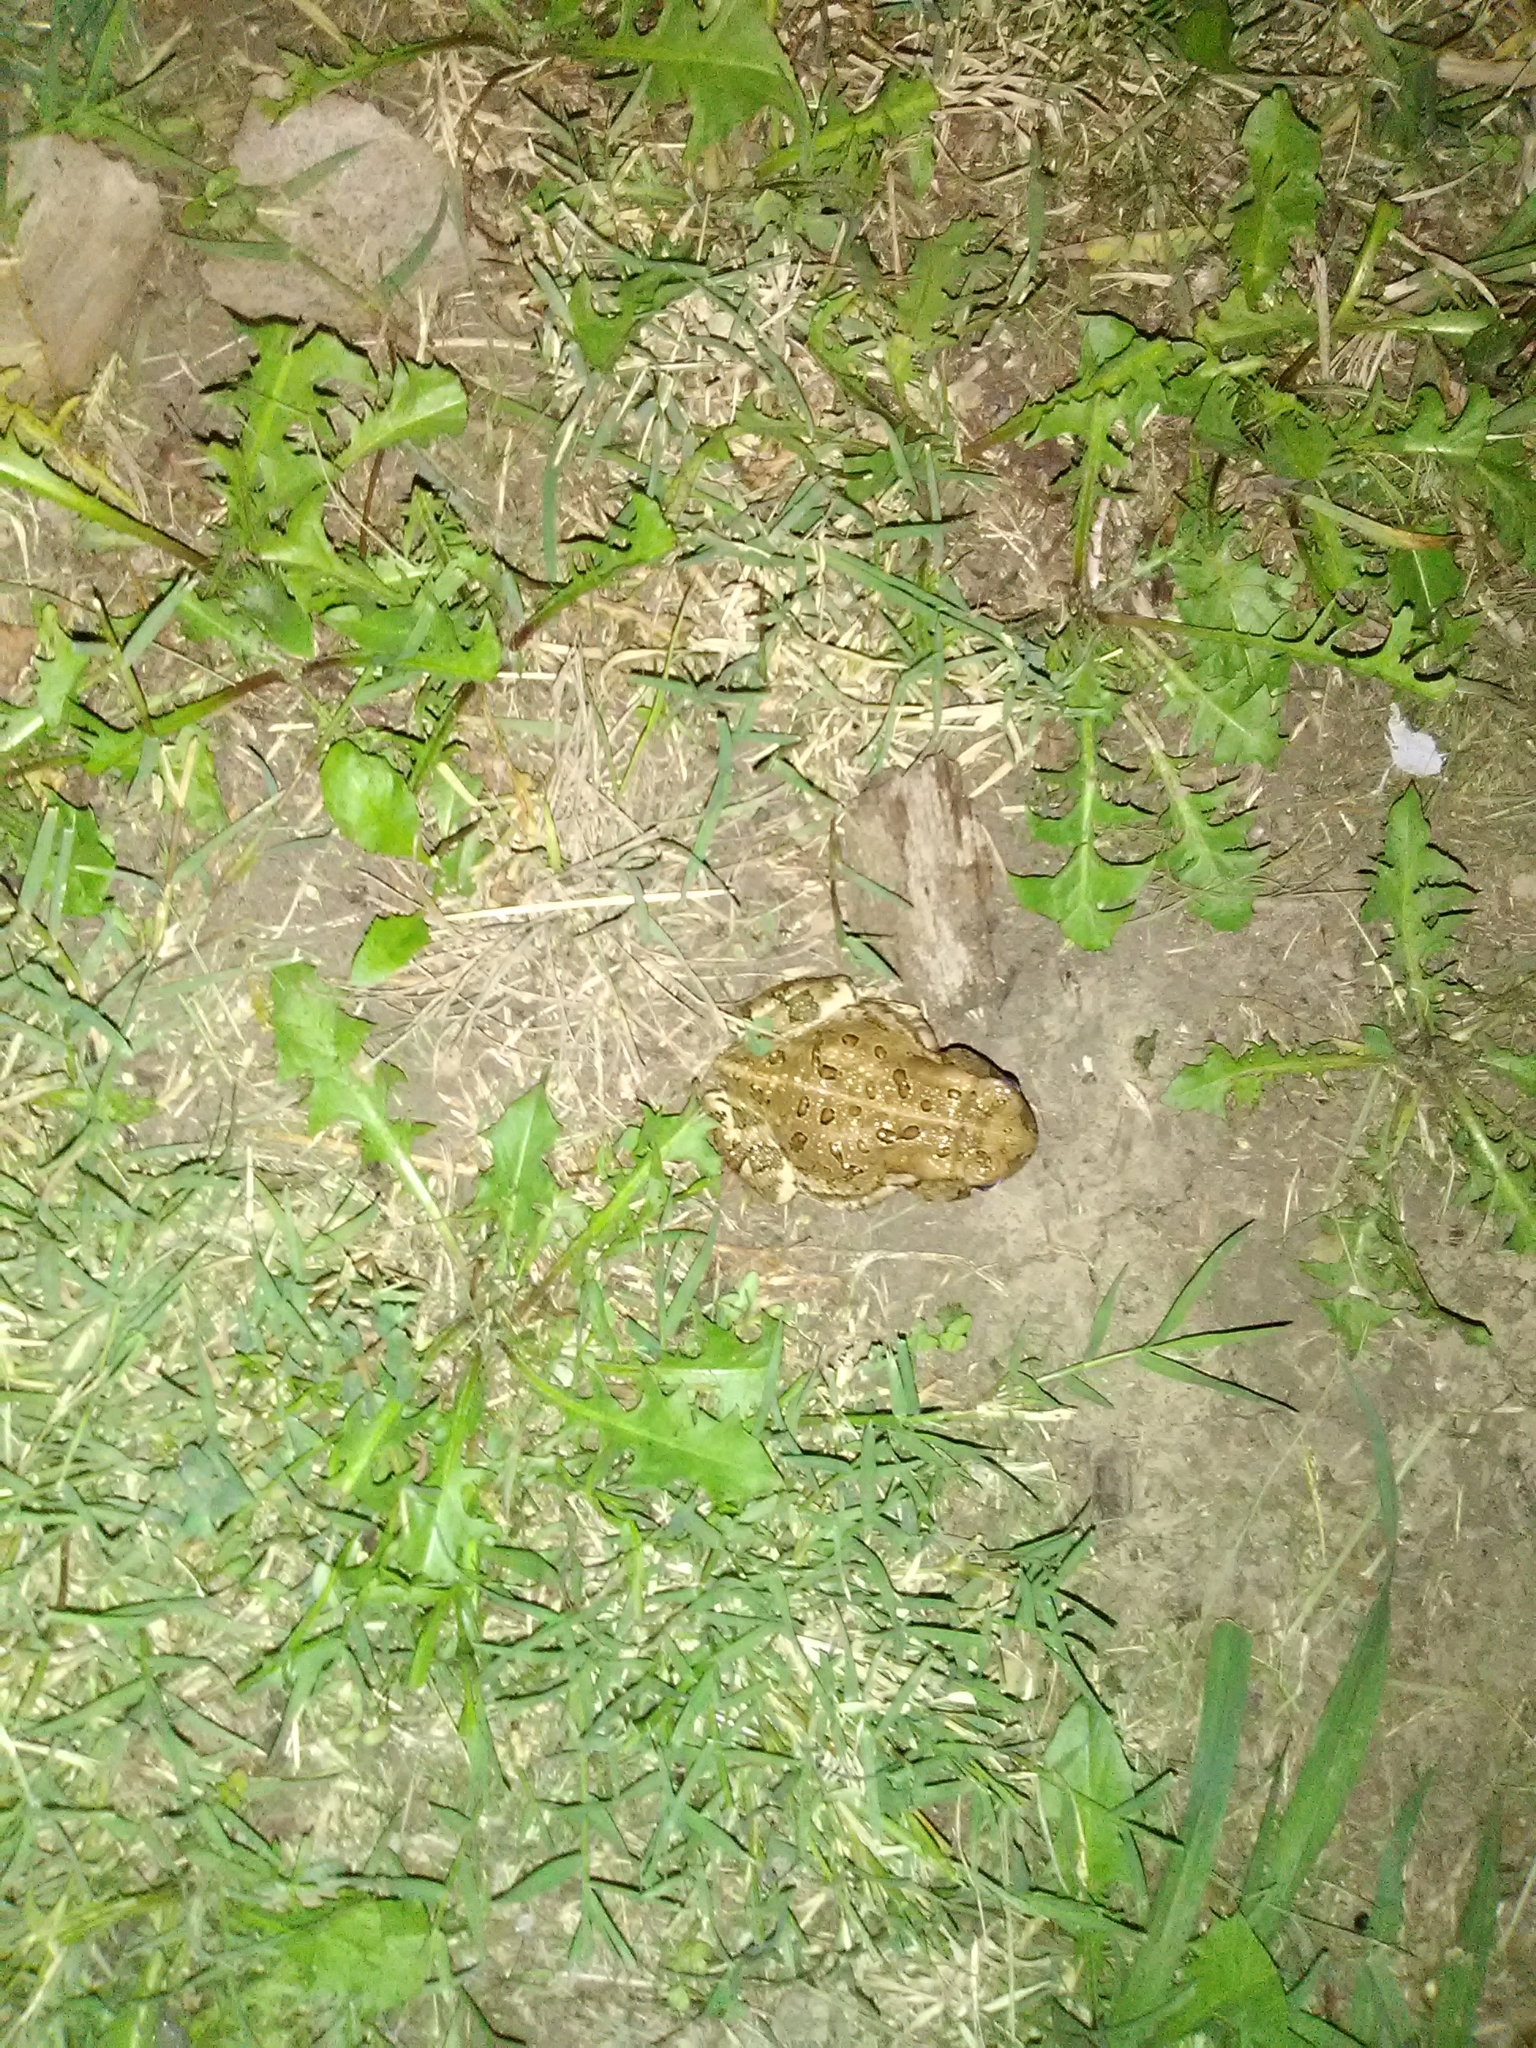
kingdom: Animalia
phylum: Chordata
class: Amphibia
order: Anura
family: Bufonidae
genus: Anaxyrus
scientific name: Anaxyrus woodhousii
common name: Woodhouse's toad
